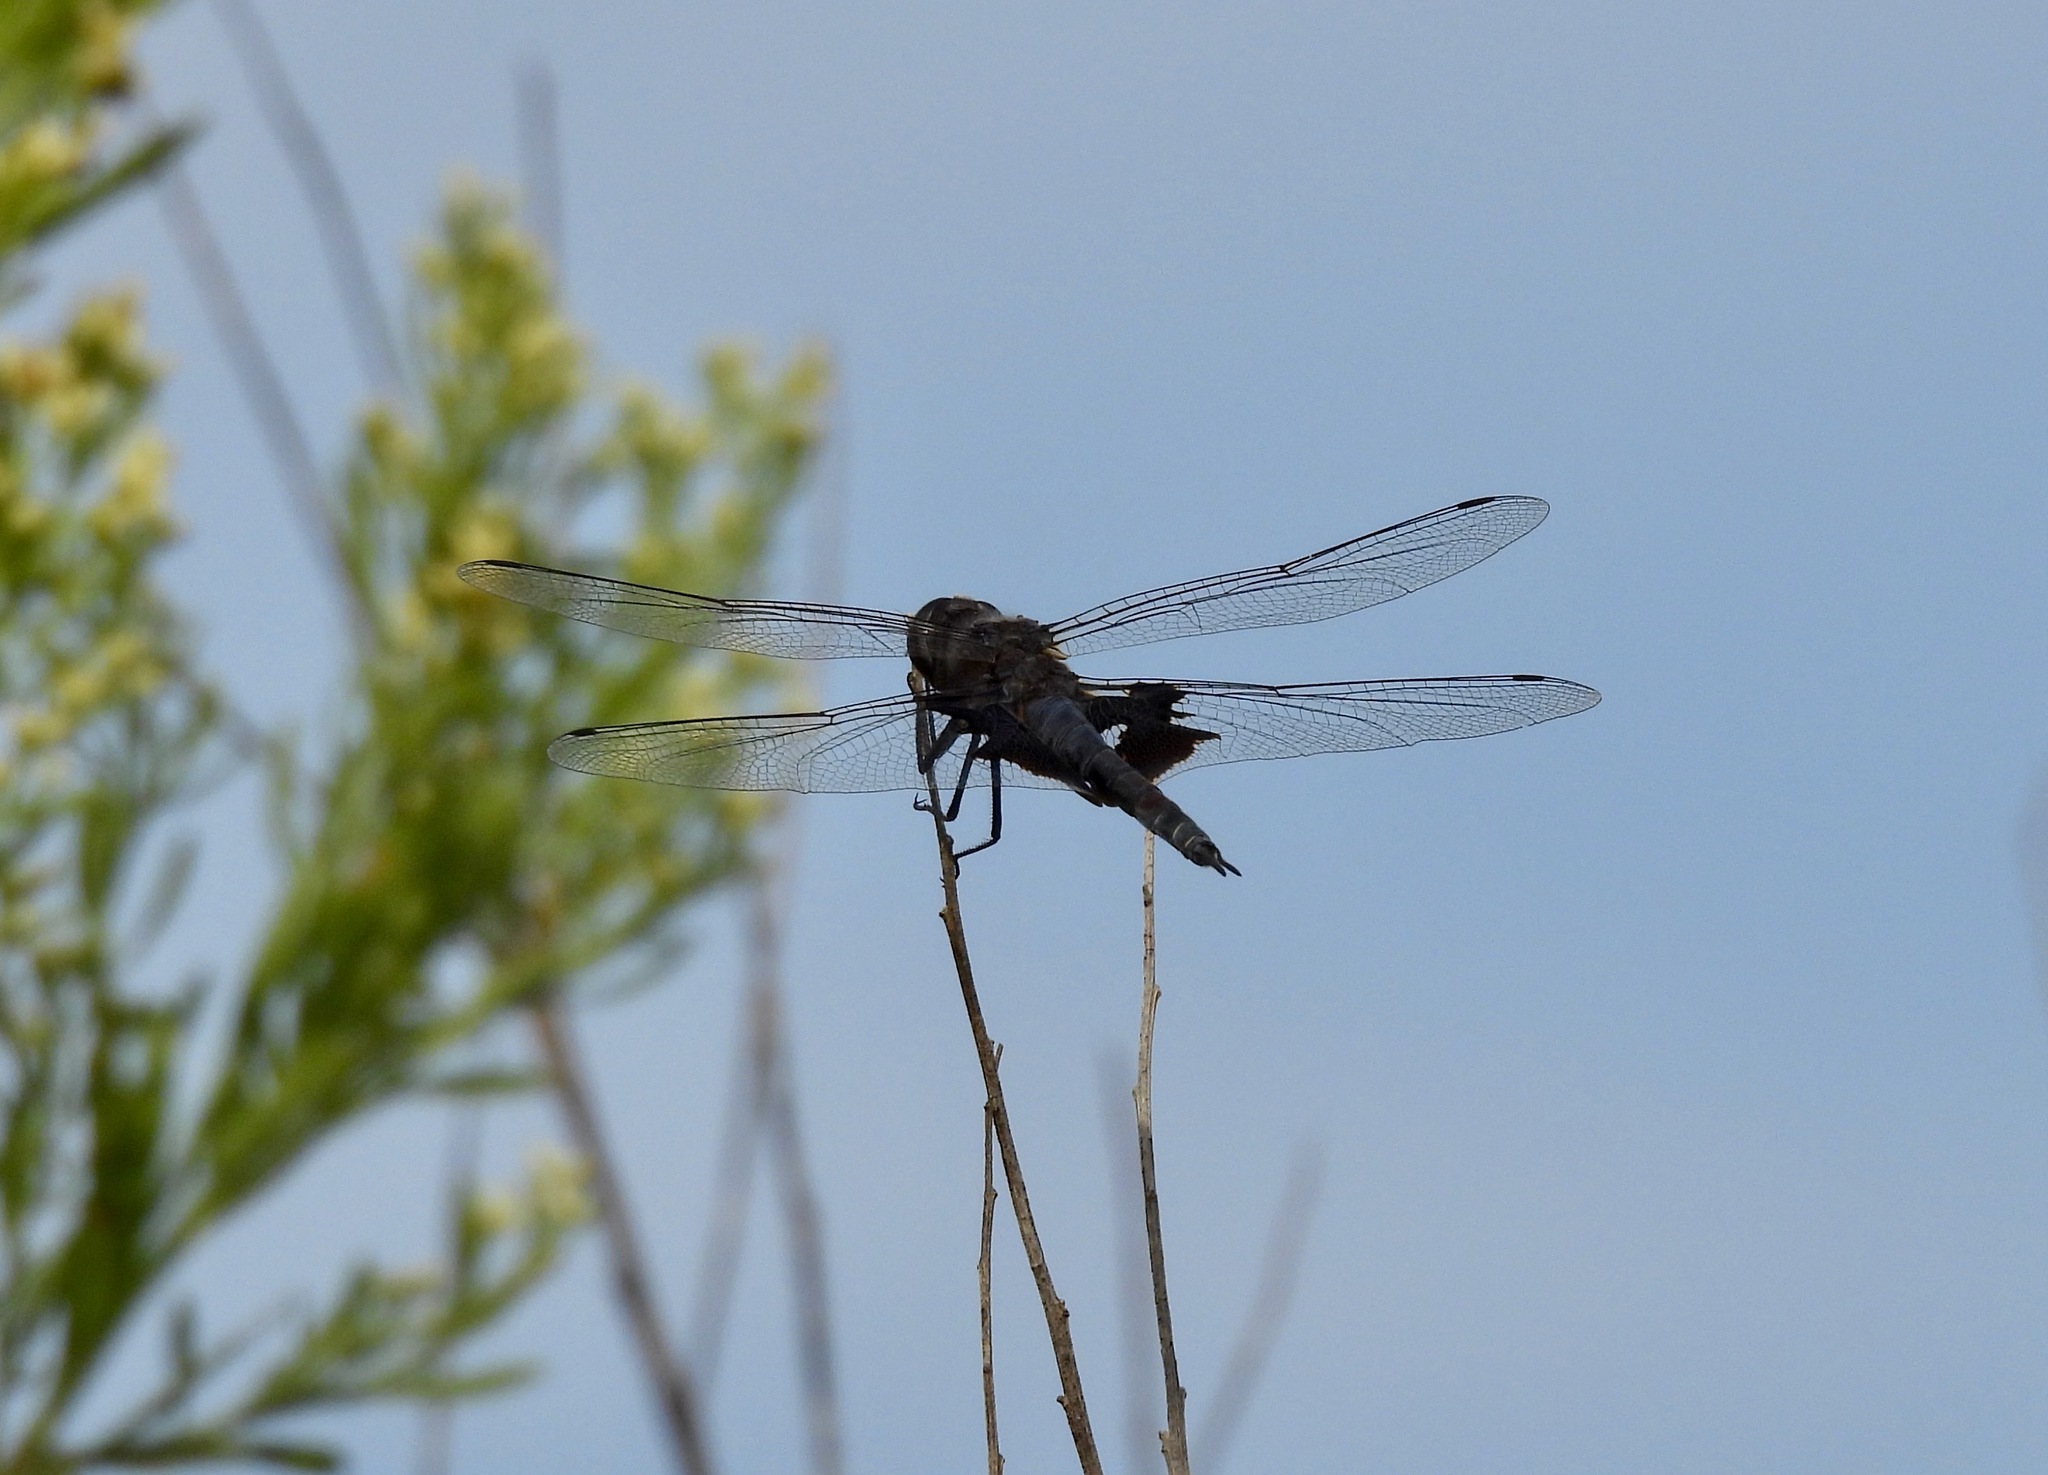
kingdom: Animalia
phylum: Arthropoda
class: Insecta
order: Odonata
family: Libellulidae
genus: Tramea
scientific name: Tramea lacerata
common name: Black saddlebags
